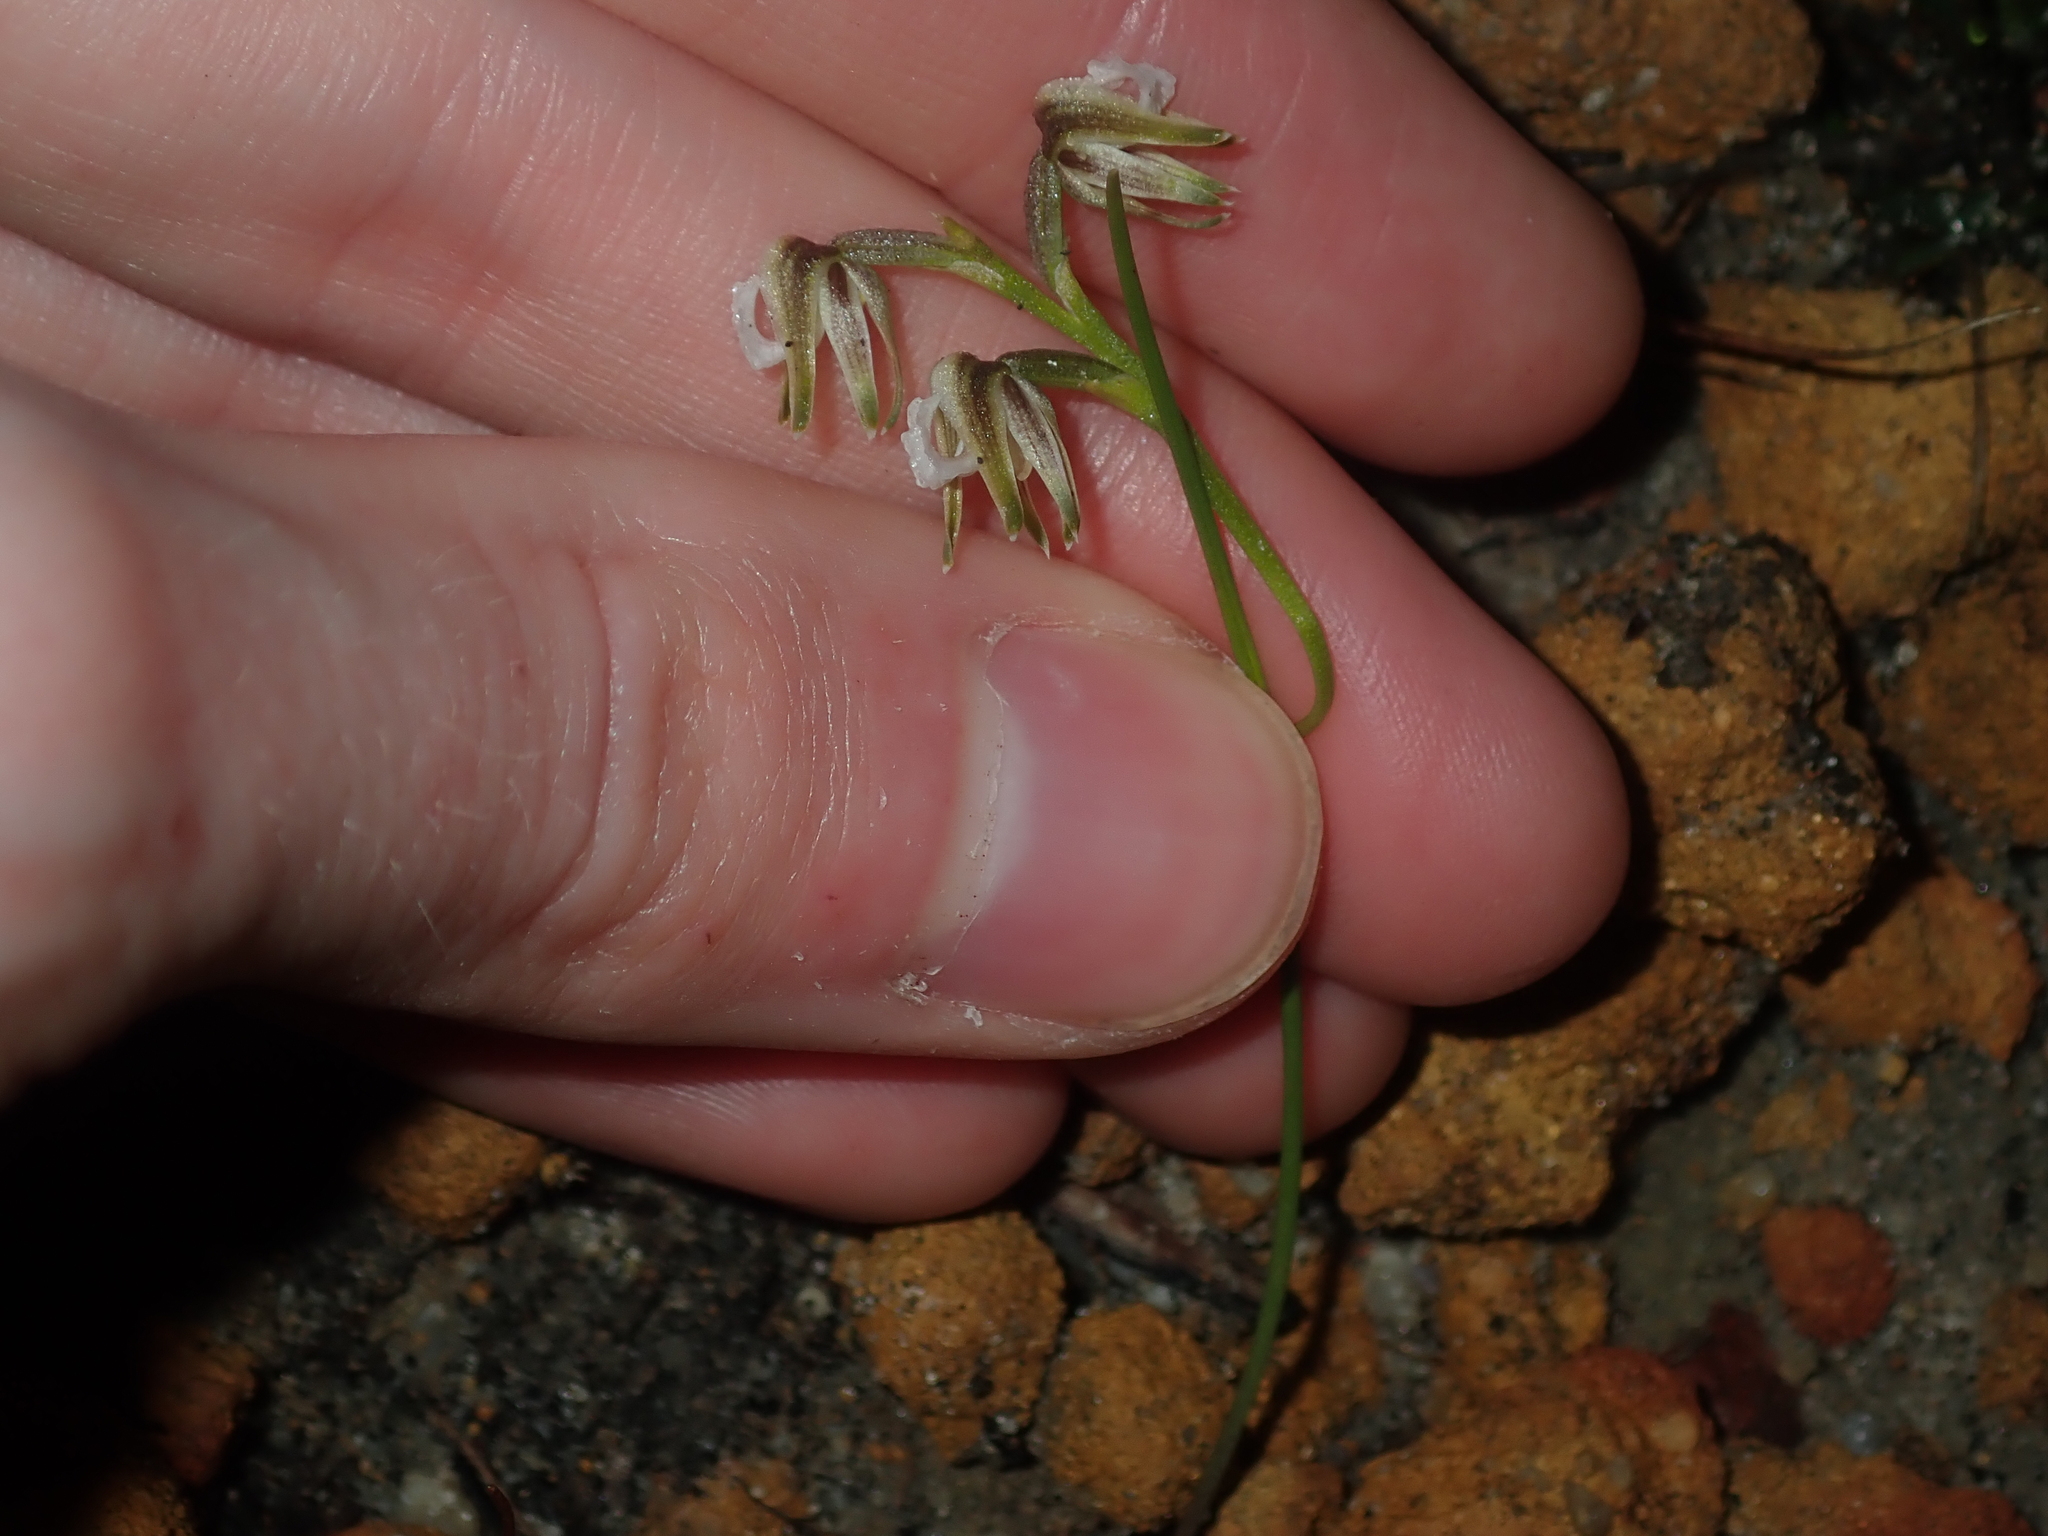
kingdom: Plantae
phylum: Tracheophyta
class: Liliopsida
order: Asparagales
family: Orchidaceae
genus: Prasophyllum
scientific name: Prasophyllum parvifolium
